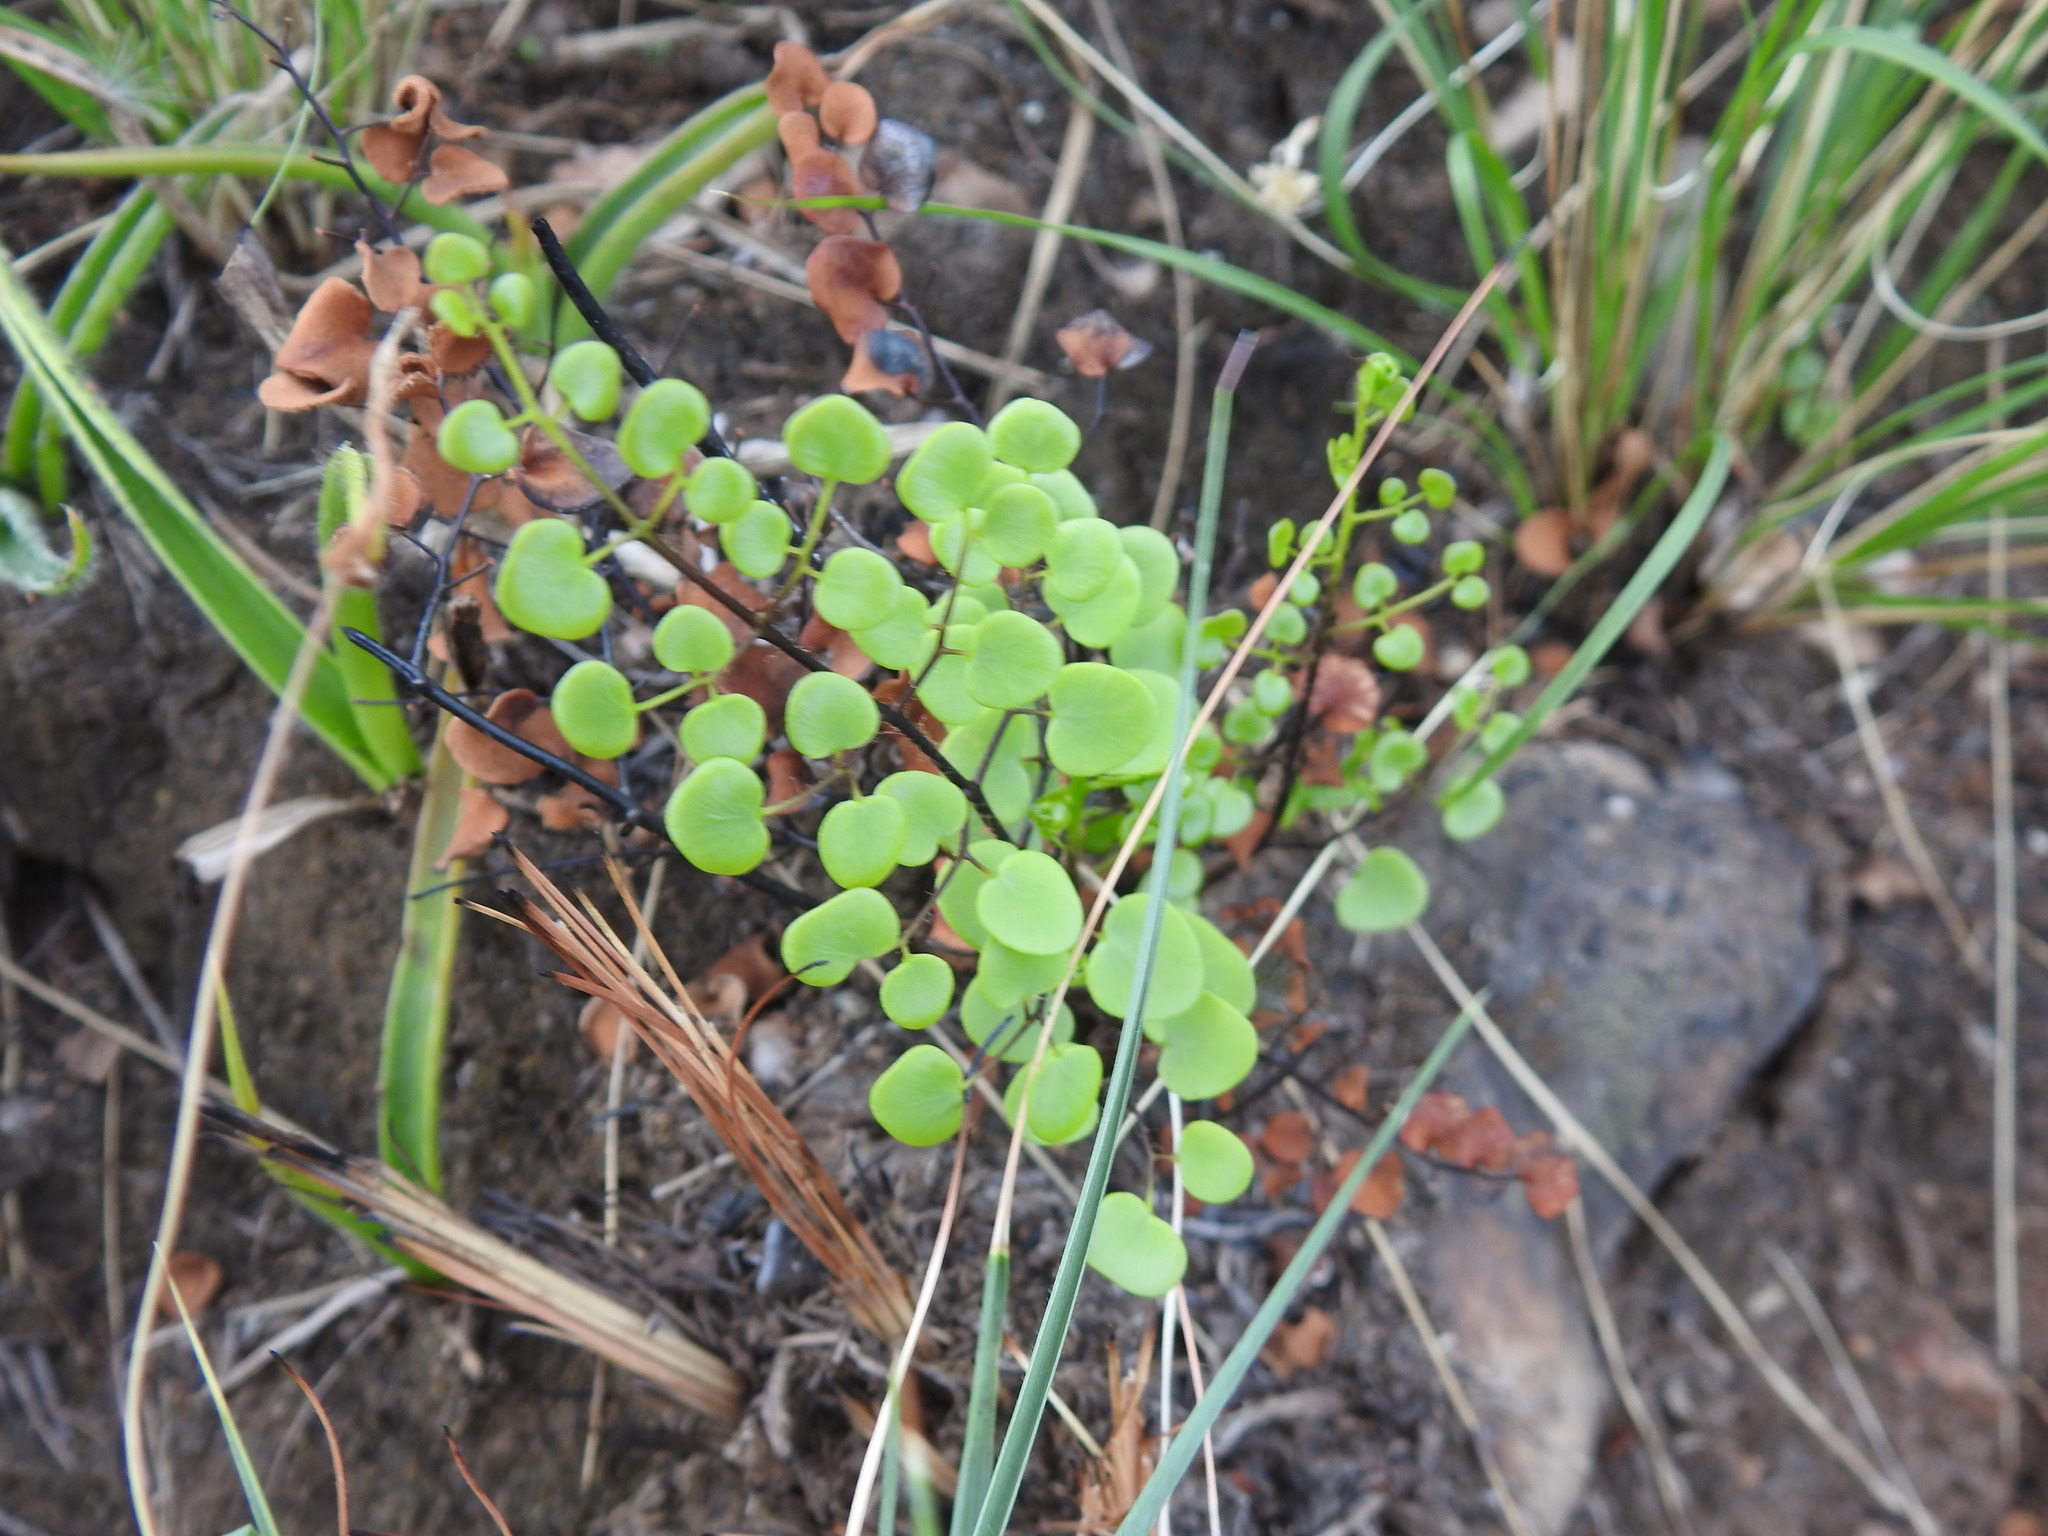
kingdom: Plantae
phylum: Tracheophyta
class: Polypodiopsida
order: Polypodiales
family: Pteridaceae
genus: Pellaea
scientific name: Pellaea calomelanos
